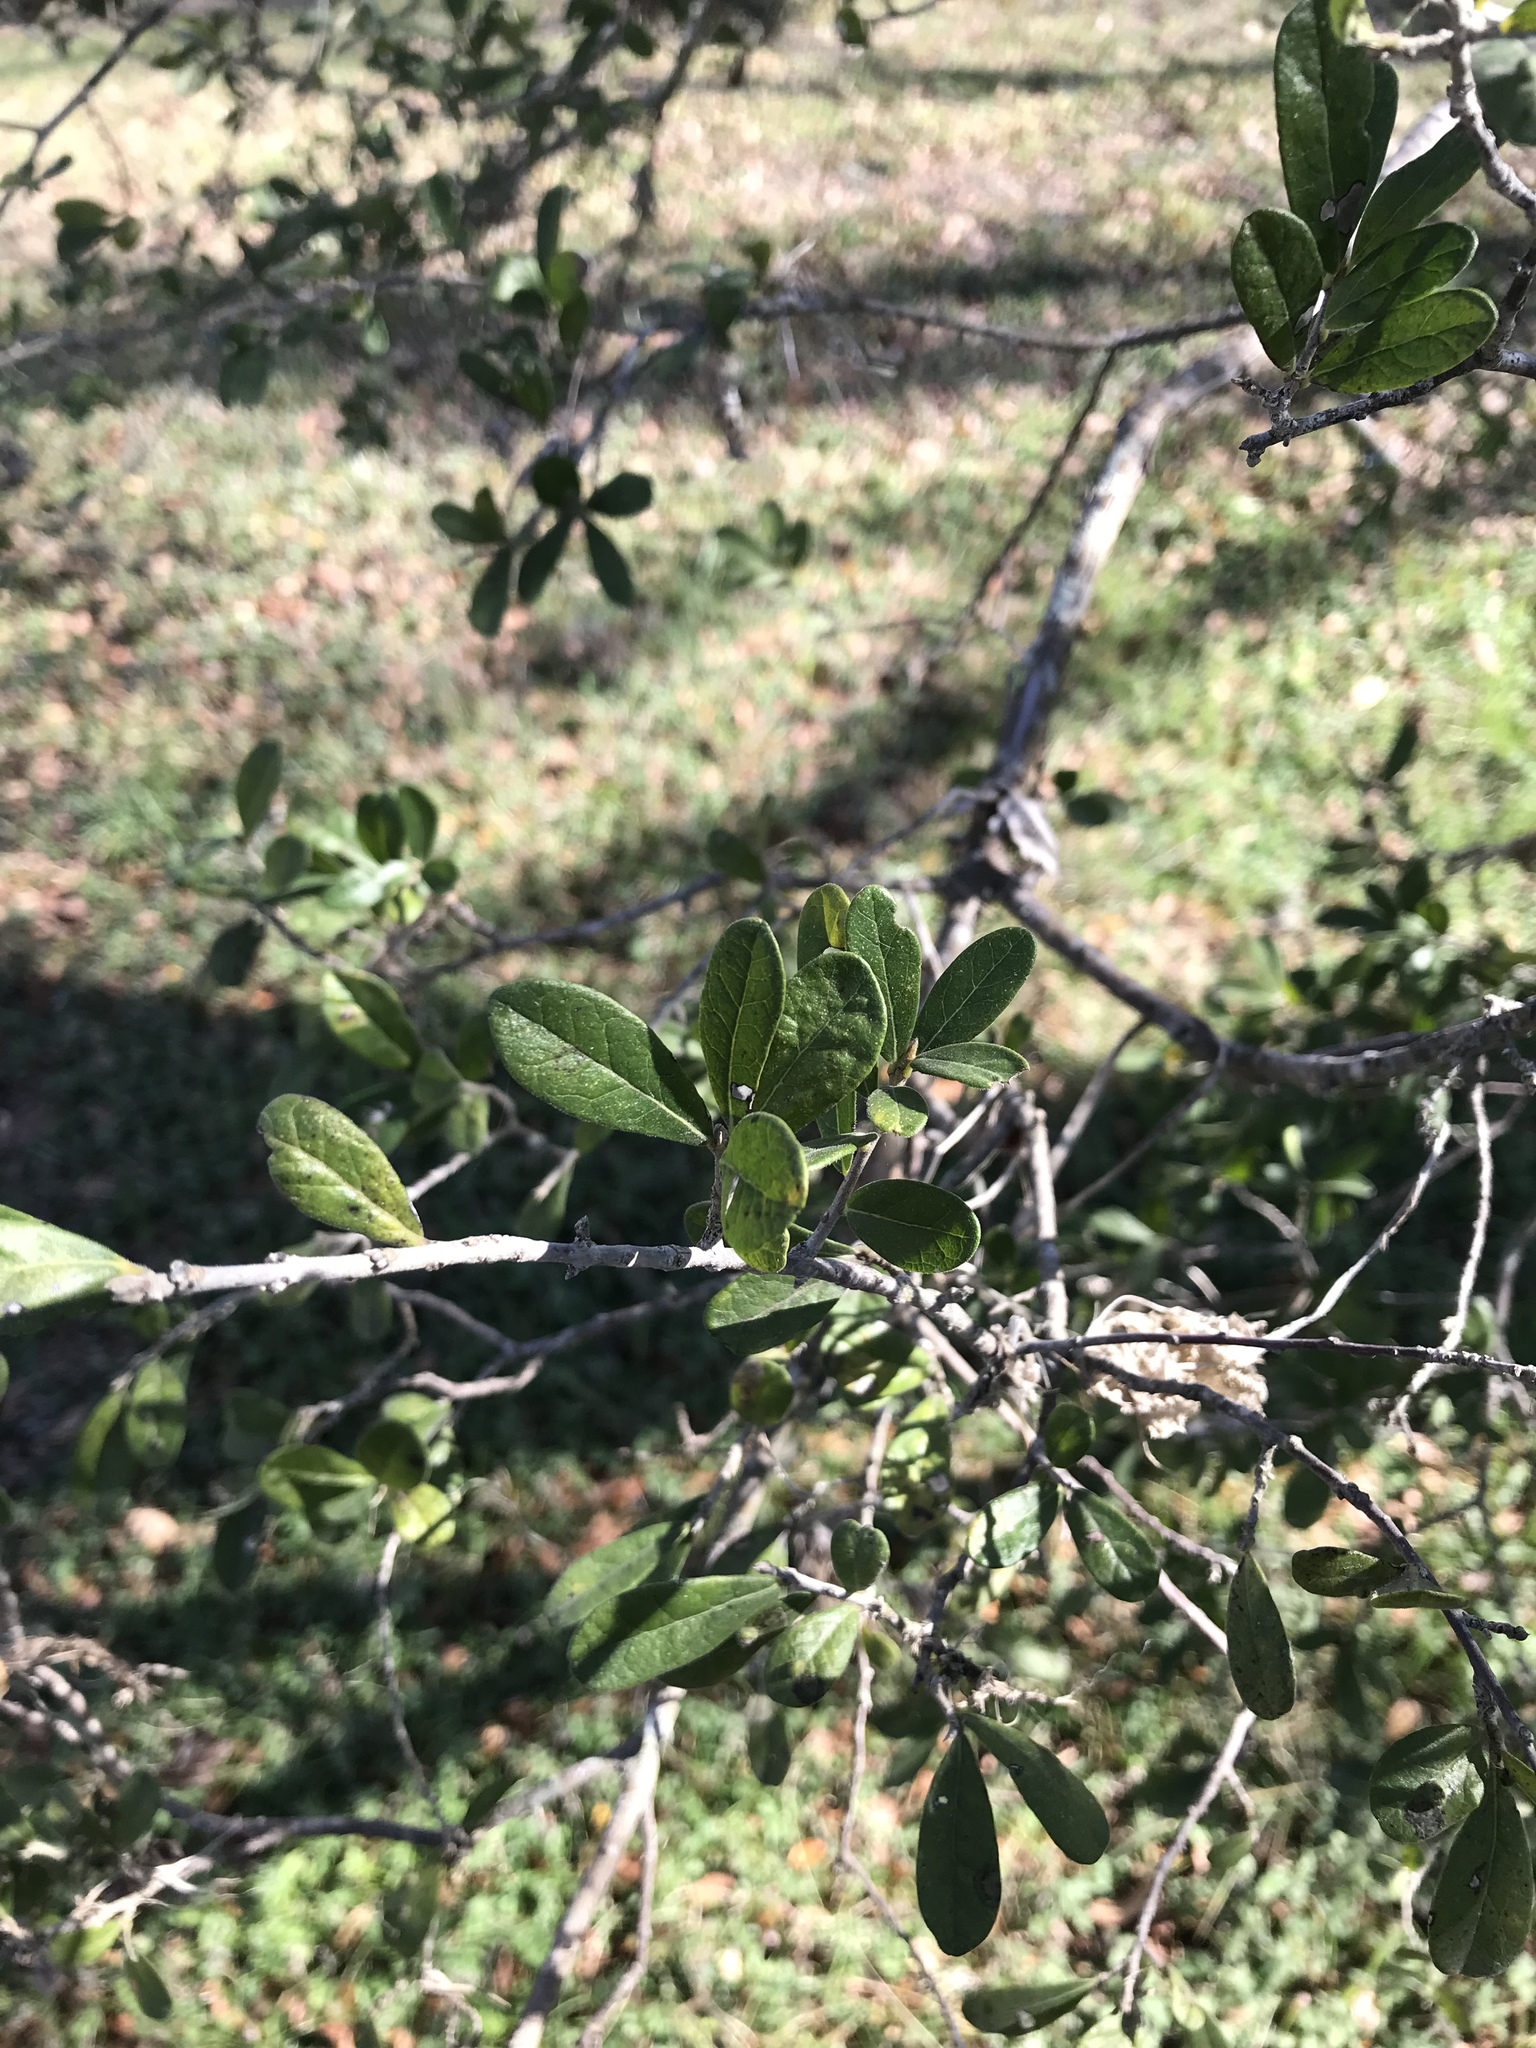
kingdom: Plantae
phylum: Tracheophyta
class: Magnoliopsida
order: Ericales
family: Ebenaceae
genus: Diospyros
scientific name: Diospyros texana
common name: Texas persimmon
